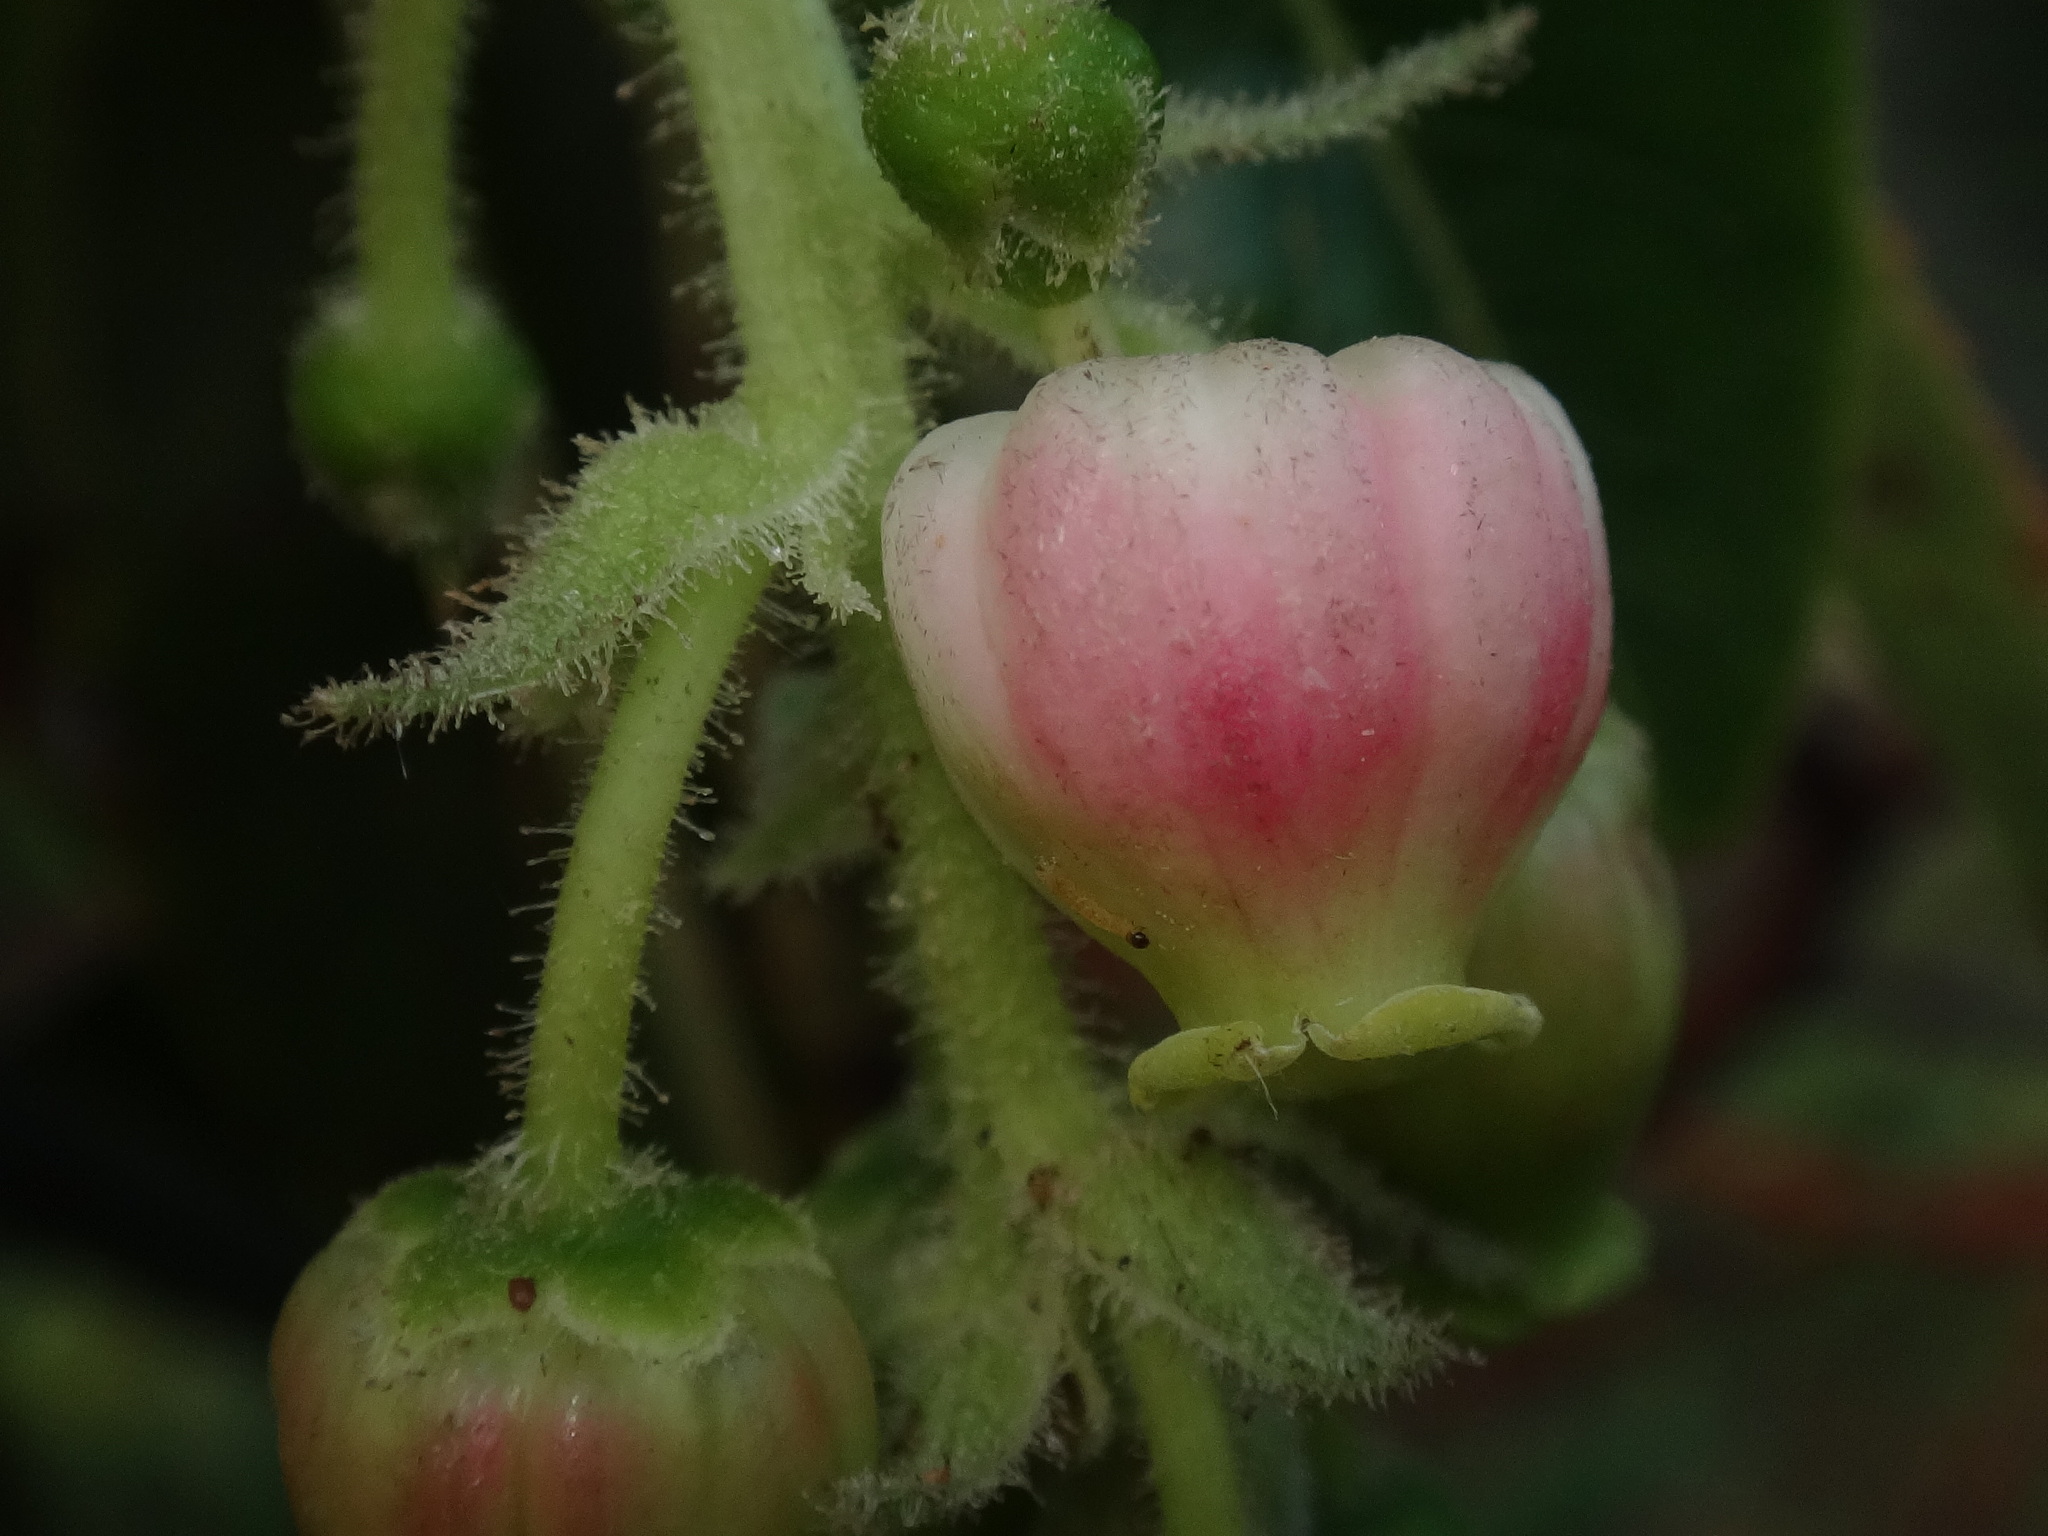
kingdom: Plantae
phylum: Tracheophyta
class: Magnoliopsida
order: Ericales
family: Ericaceae
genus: Arbutus
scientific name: Arbutus canariensis
